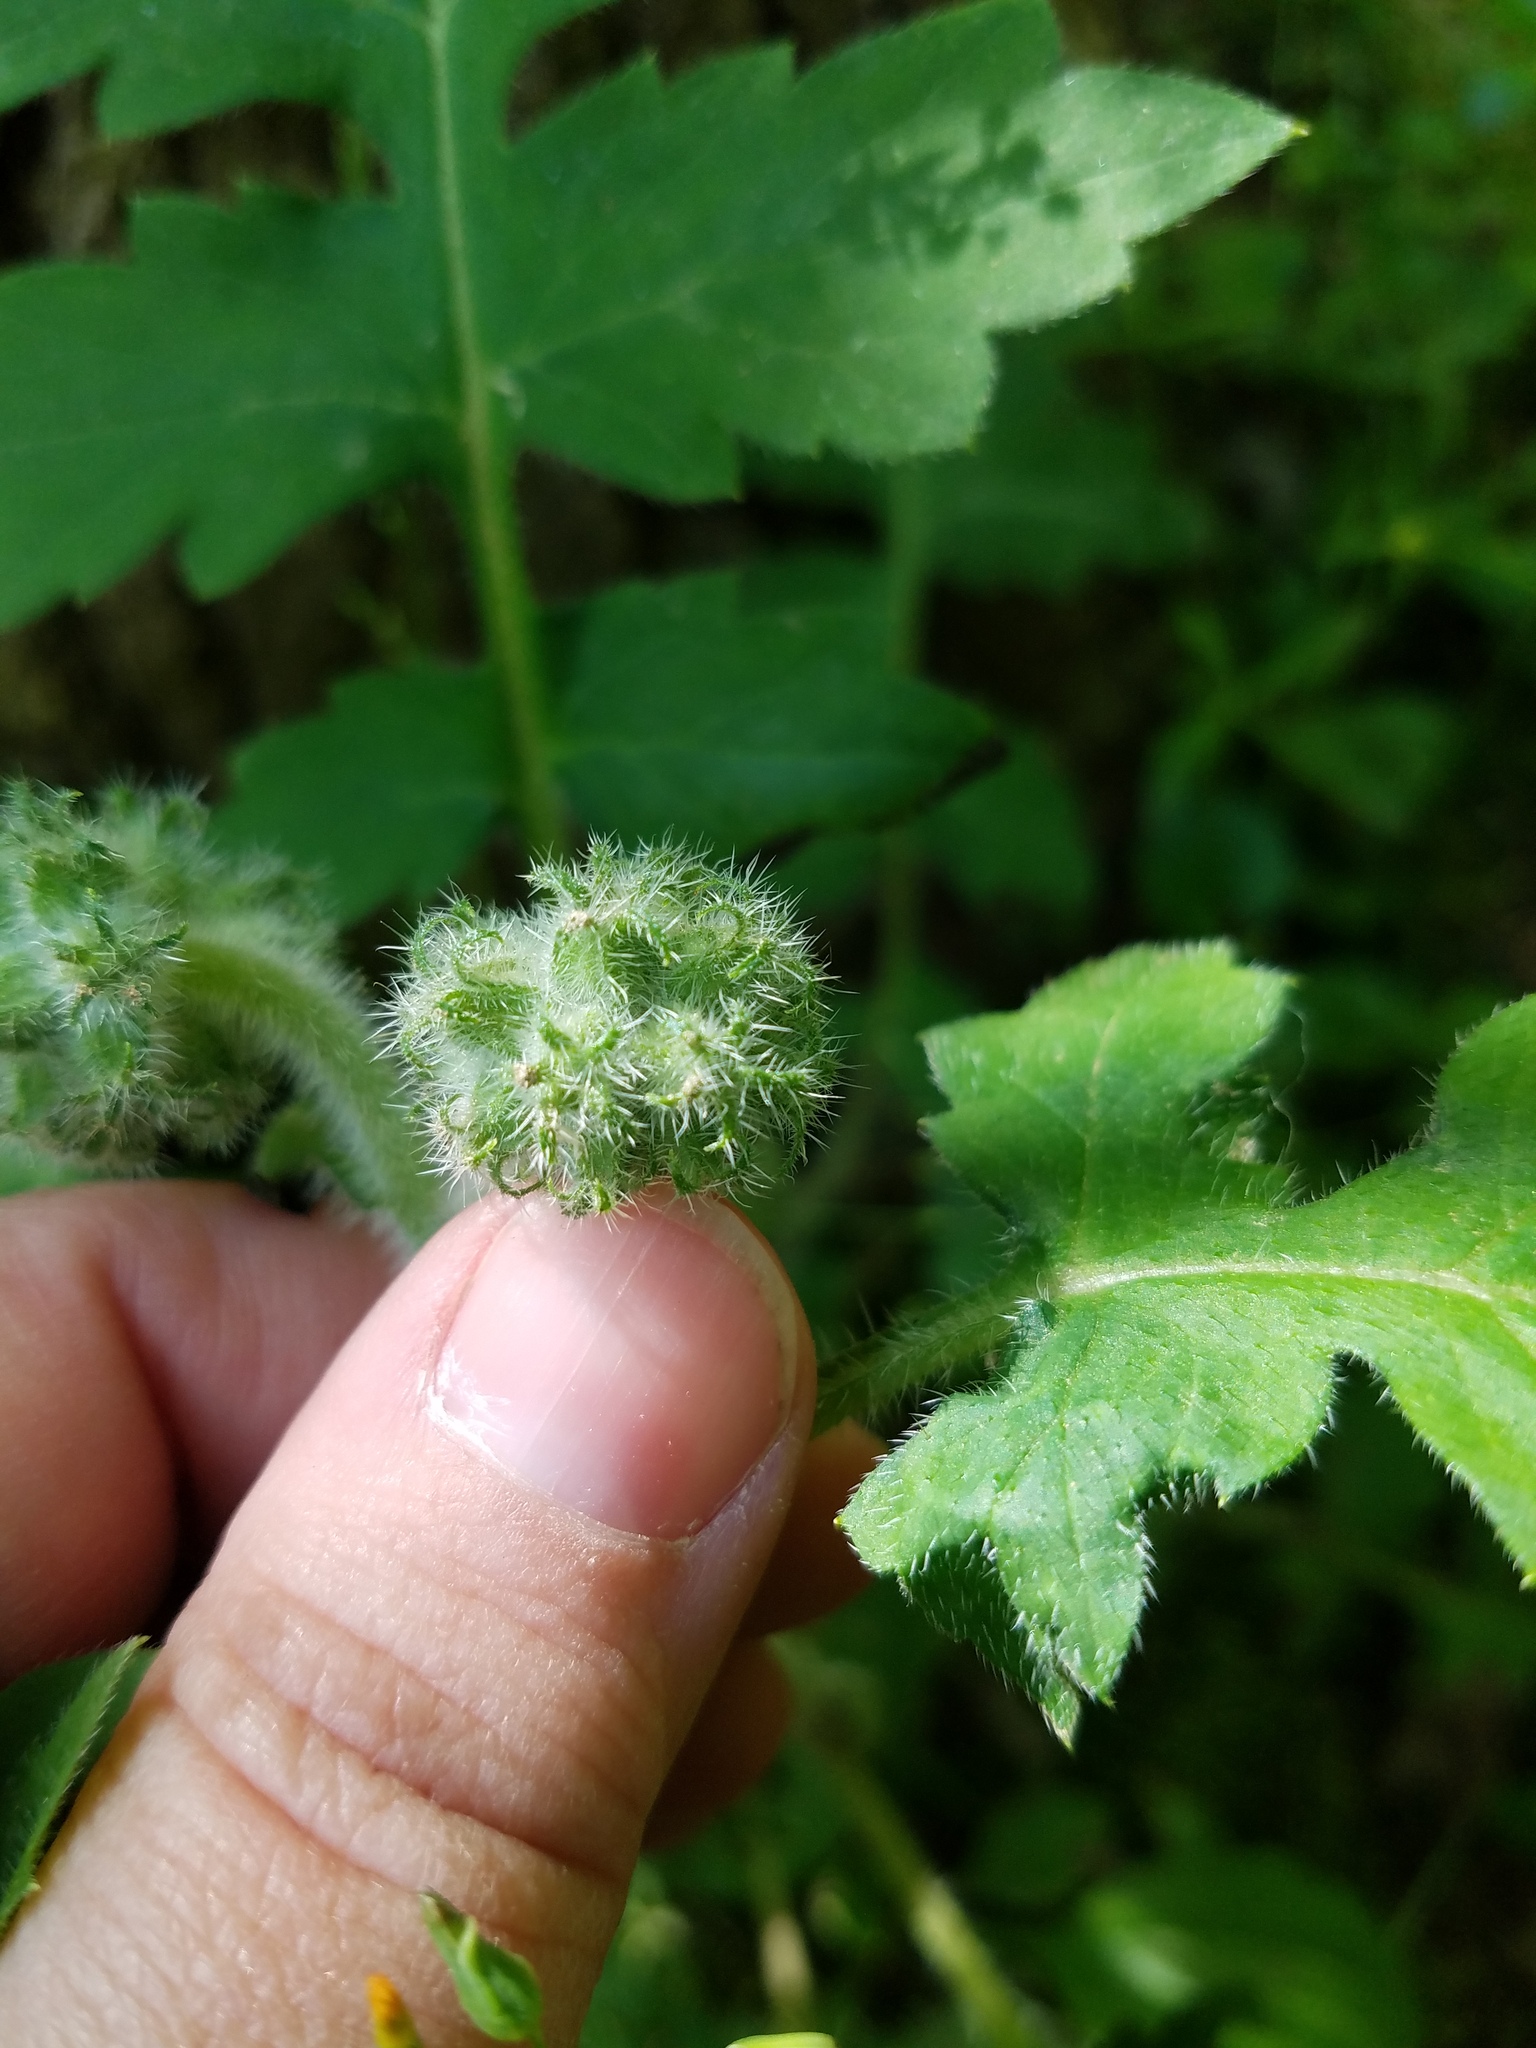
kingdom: Plantae
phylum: Tracheophyta
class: Magnoliopsida
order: Boraginales
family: Hydrophyllaceae
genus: Hydrophyllum
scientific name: Hydrophyllum macrophyllum
